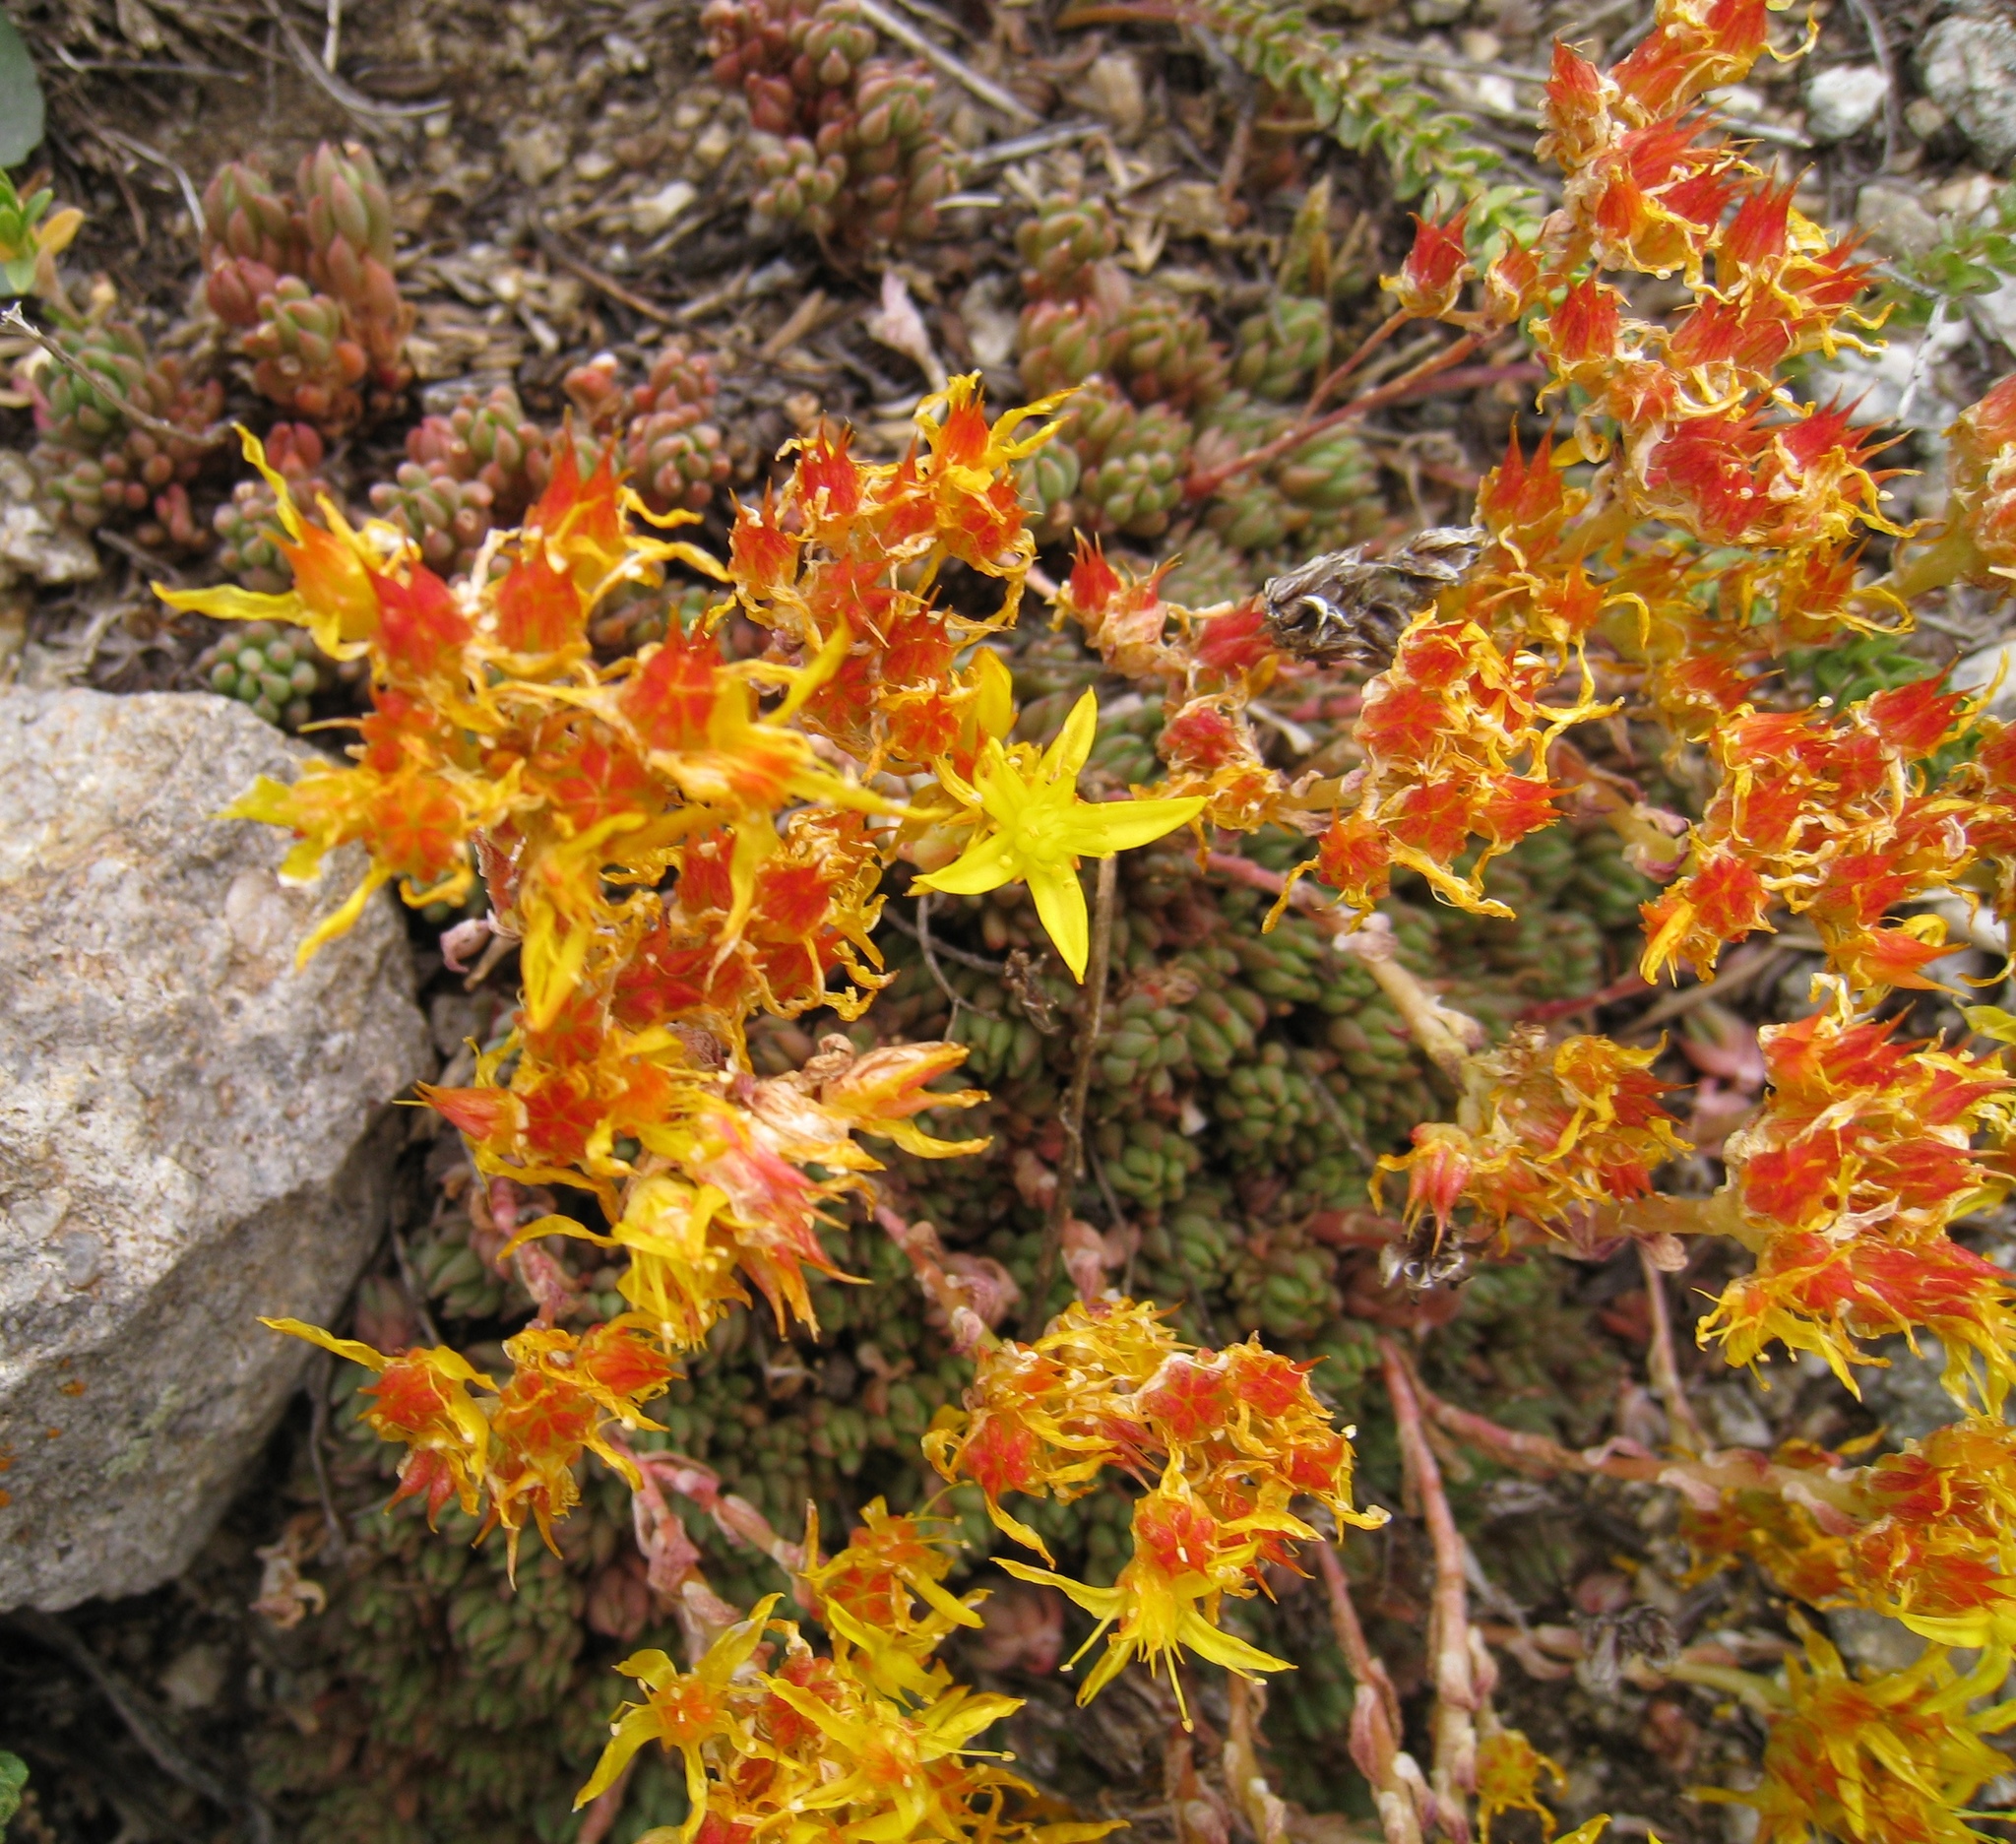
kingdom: Plantae
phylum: Tracheophyta
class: Magnoliopsida
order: Saxifragales
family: Crassulaceae
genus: Sedum
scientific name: Sedum lanceolatum
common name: Common stonecrop
